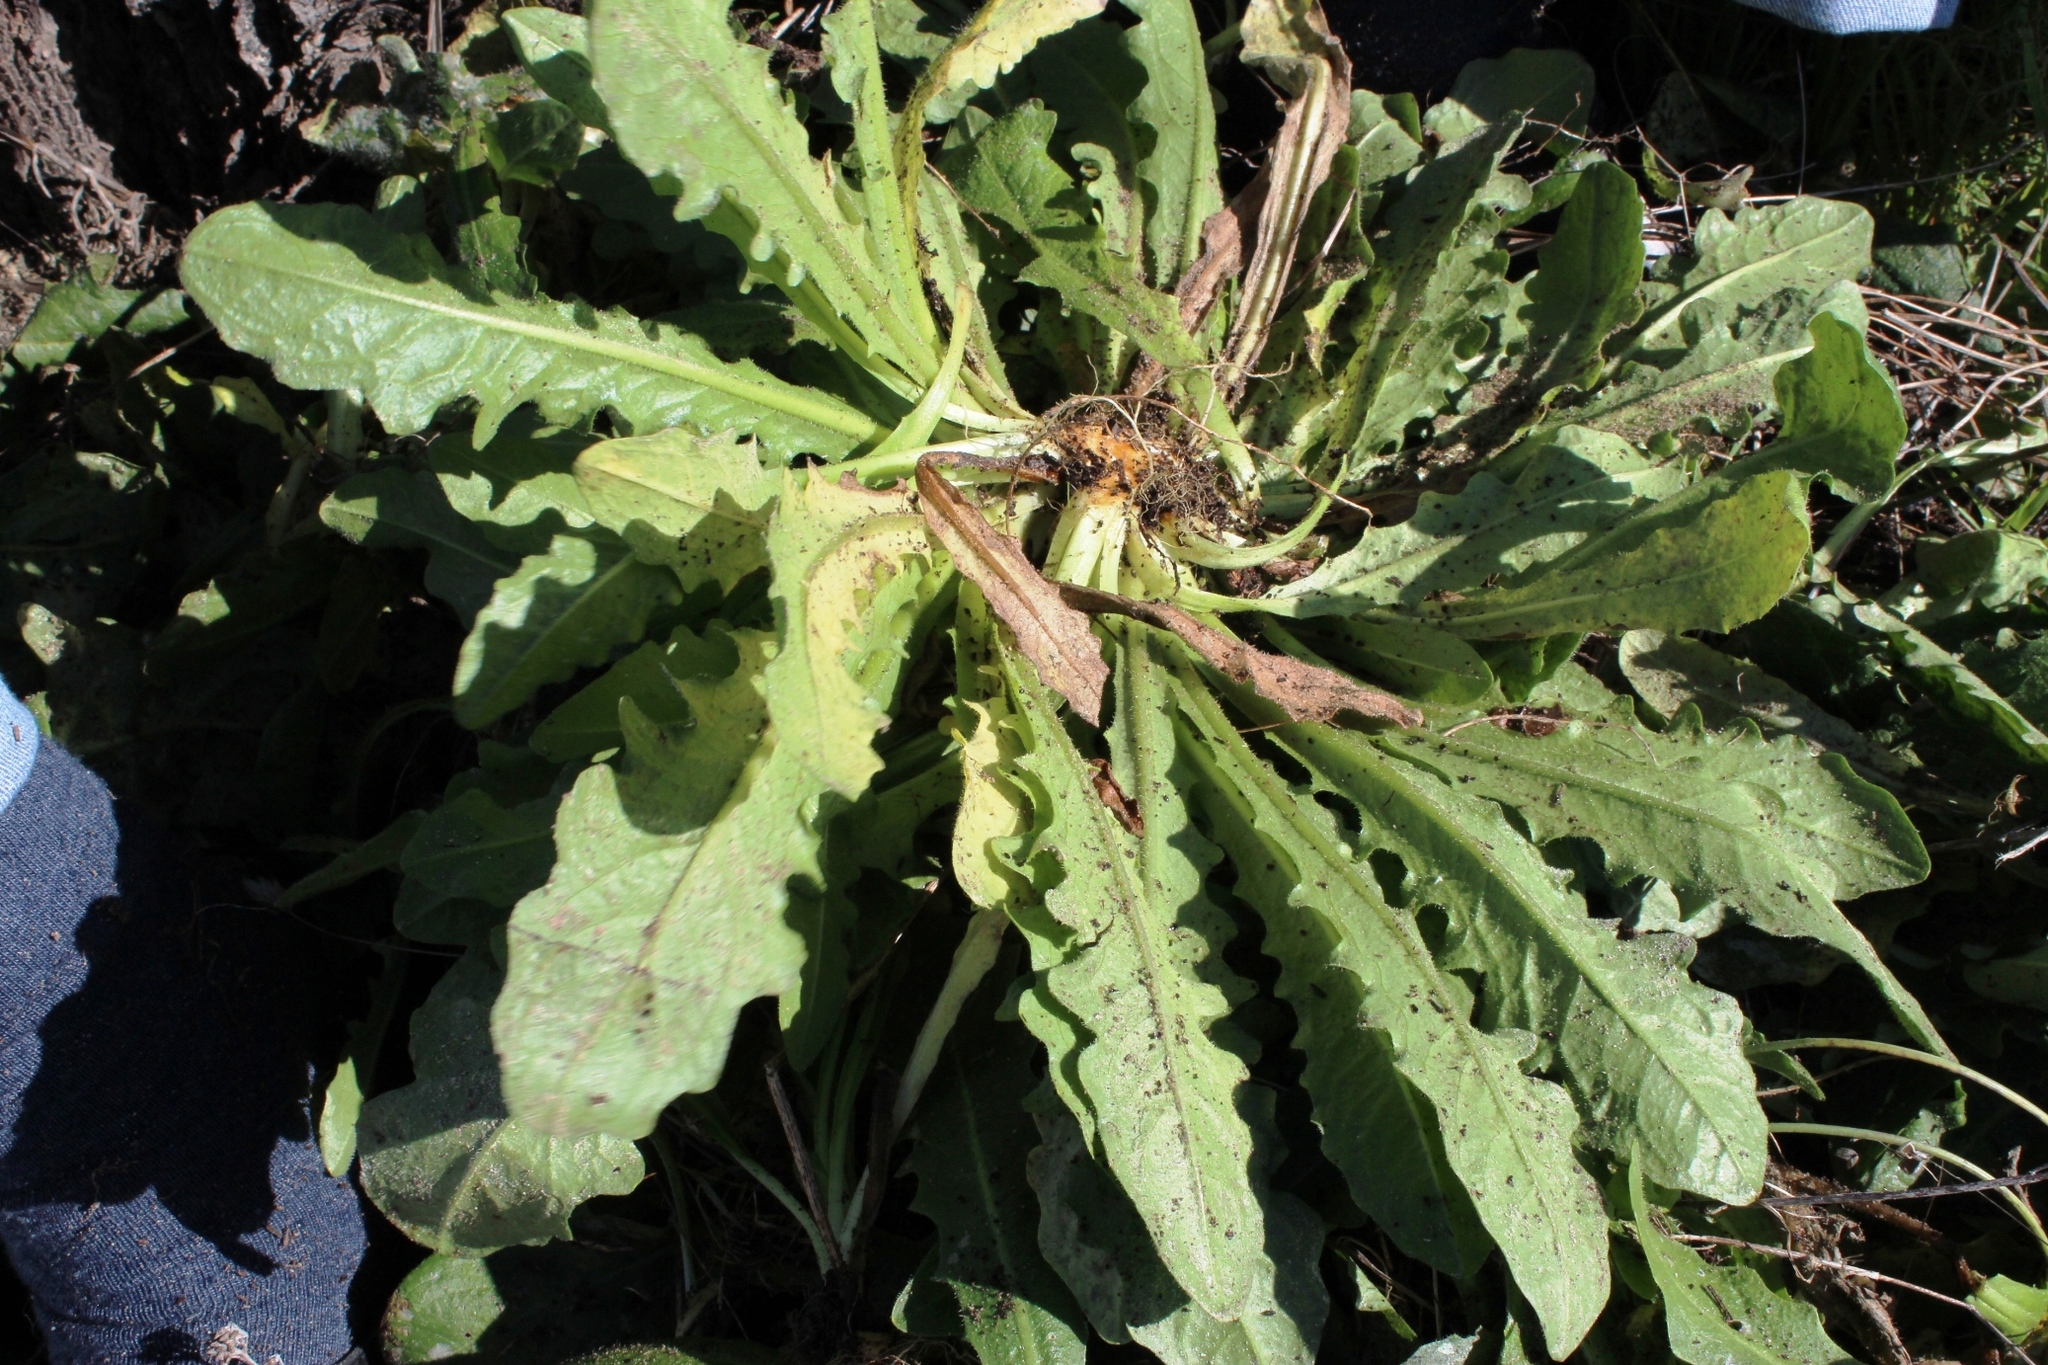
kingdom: Plantae
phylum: Tracheophyta
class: Magnoliopsida
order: Asterales
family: Asteraceae
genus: Hypochaeris
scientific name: Hypochaeris radicata
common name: Flatweed
